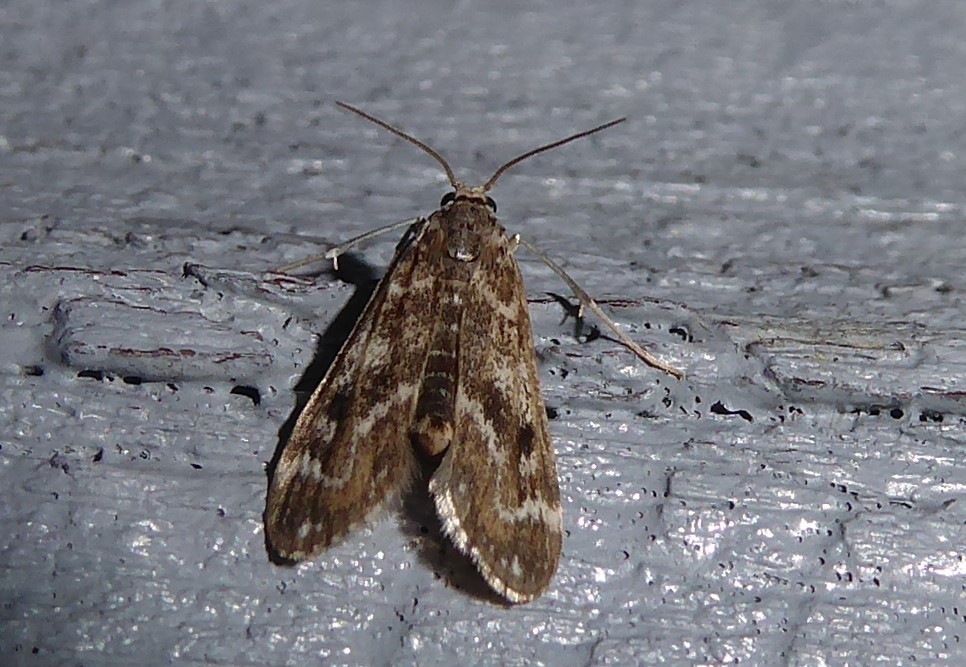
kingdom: Animalia
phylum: Arthropoda
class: Insecta
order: Lepidoptera
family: Crambidae
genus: Hygraula
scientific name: Hygraula nitens
